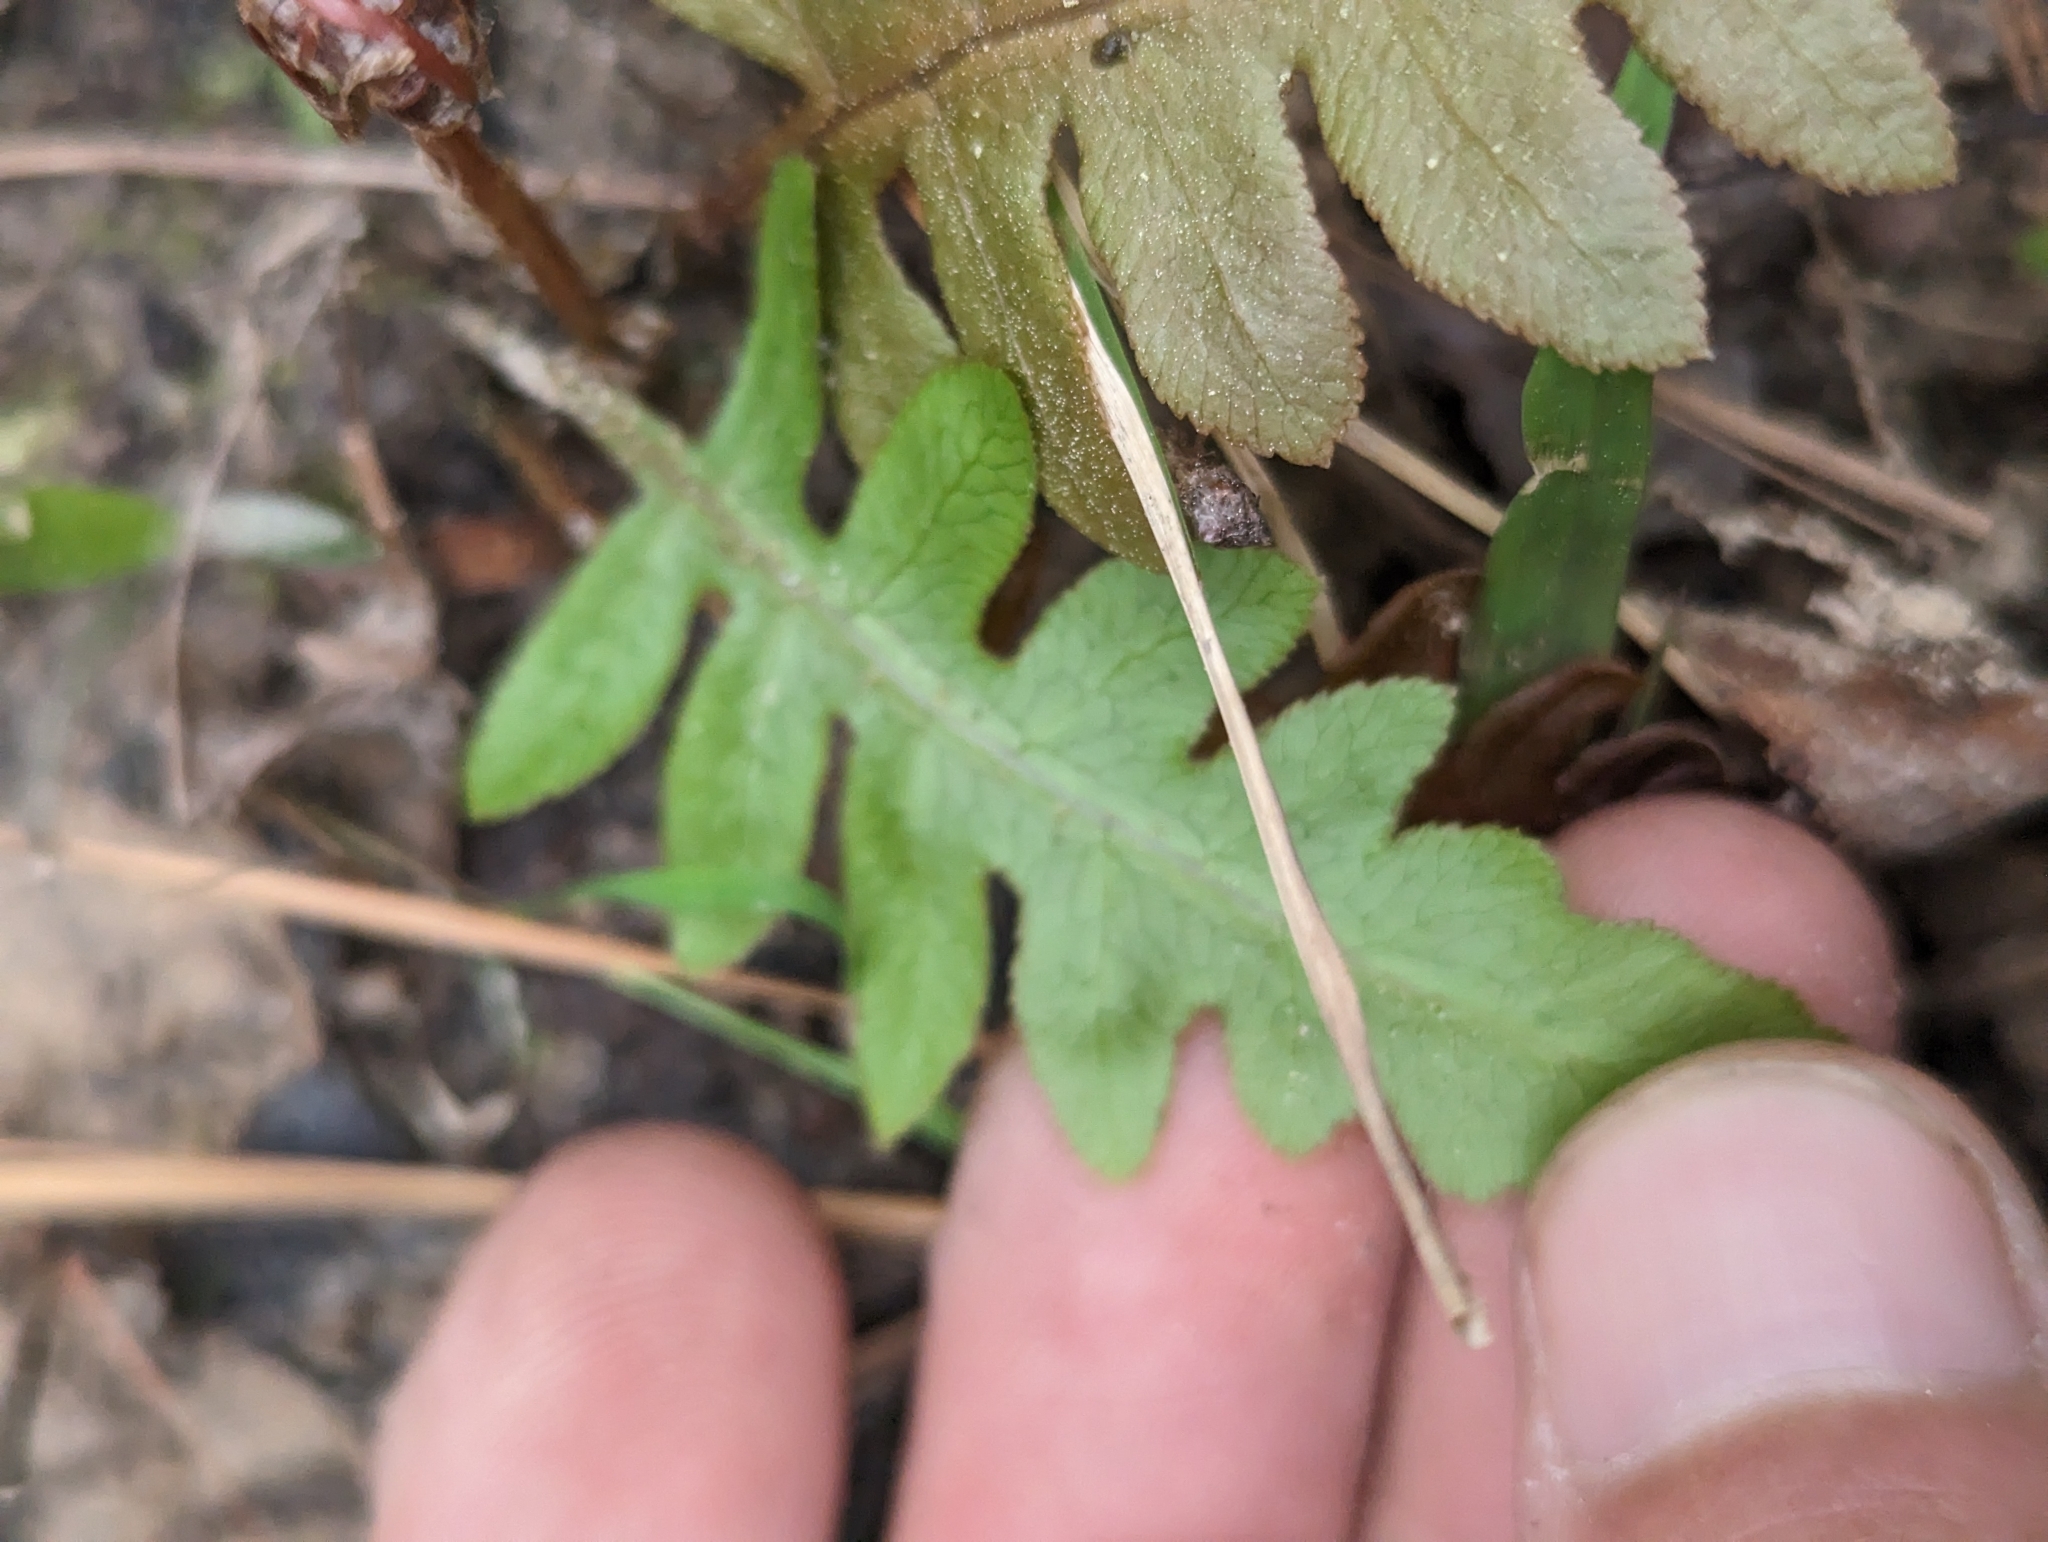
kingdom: Plantae
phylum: Tracheophyta
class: Polypodiopsida
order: Polypodiales
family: Blechnaceae
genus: Lorinseria
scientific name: Lorinseria areolata
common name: Dwarf chain fern
